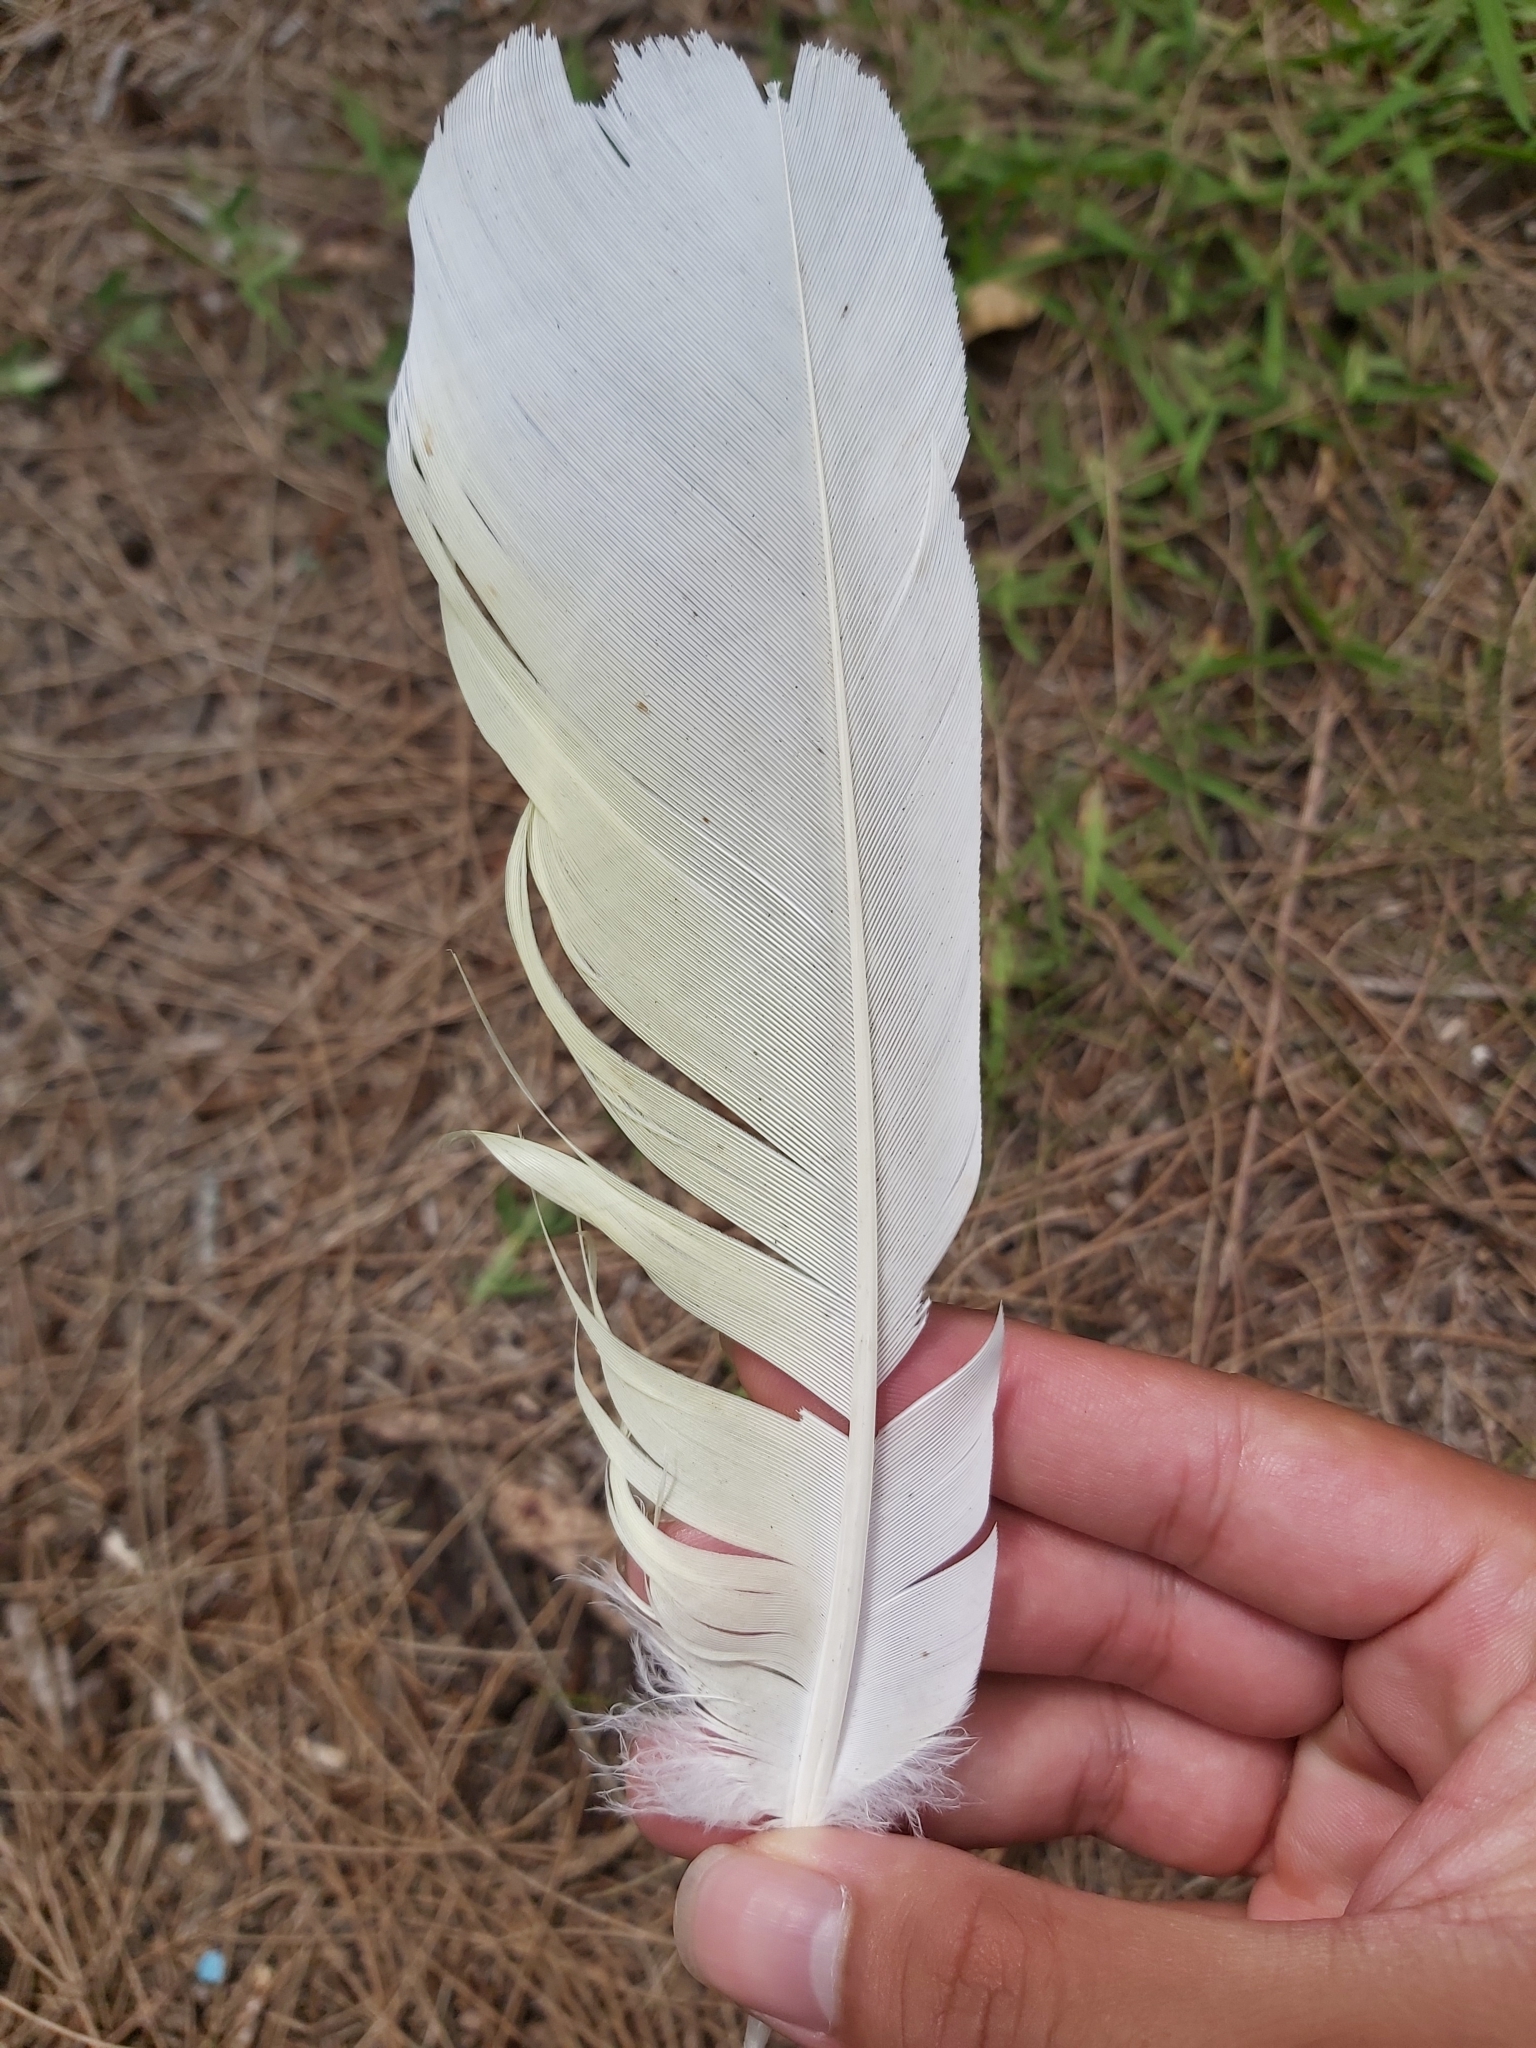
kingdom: Animalia
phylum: Chordata
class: Aves
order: Psittaciformes
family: Psittacidae
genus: Cacatua
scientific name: Cacatua galerita
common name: Sulphur-crested cockatoo
